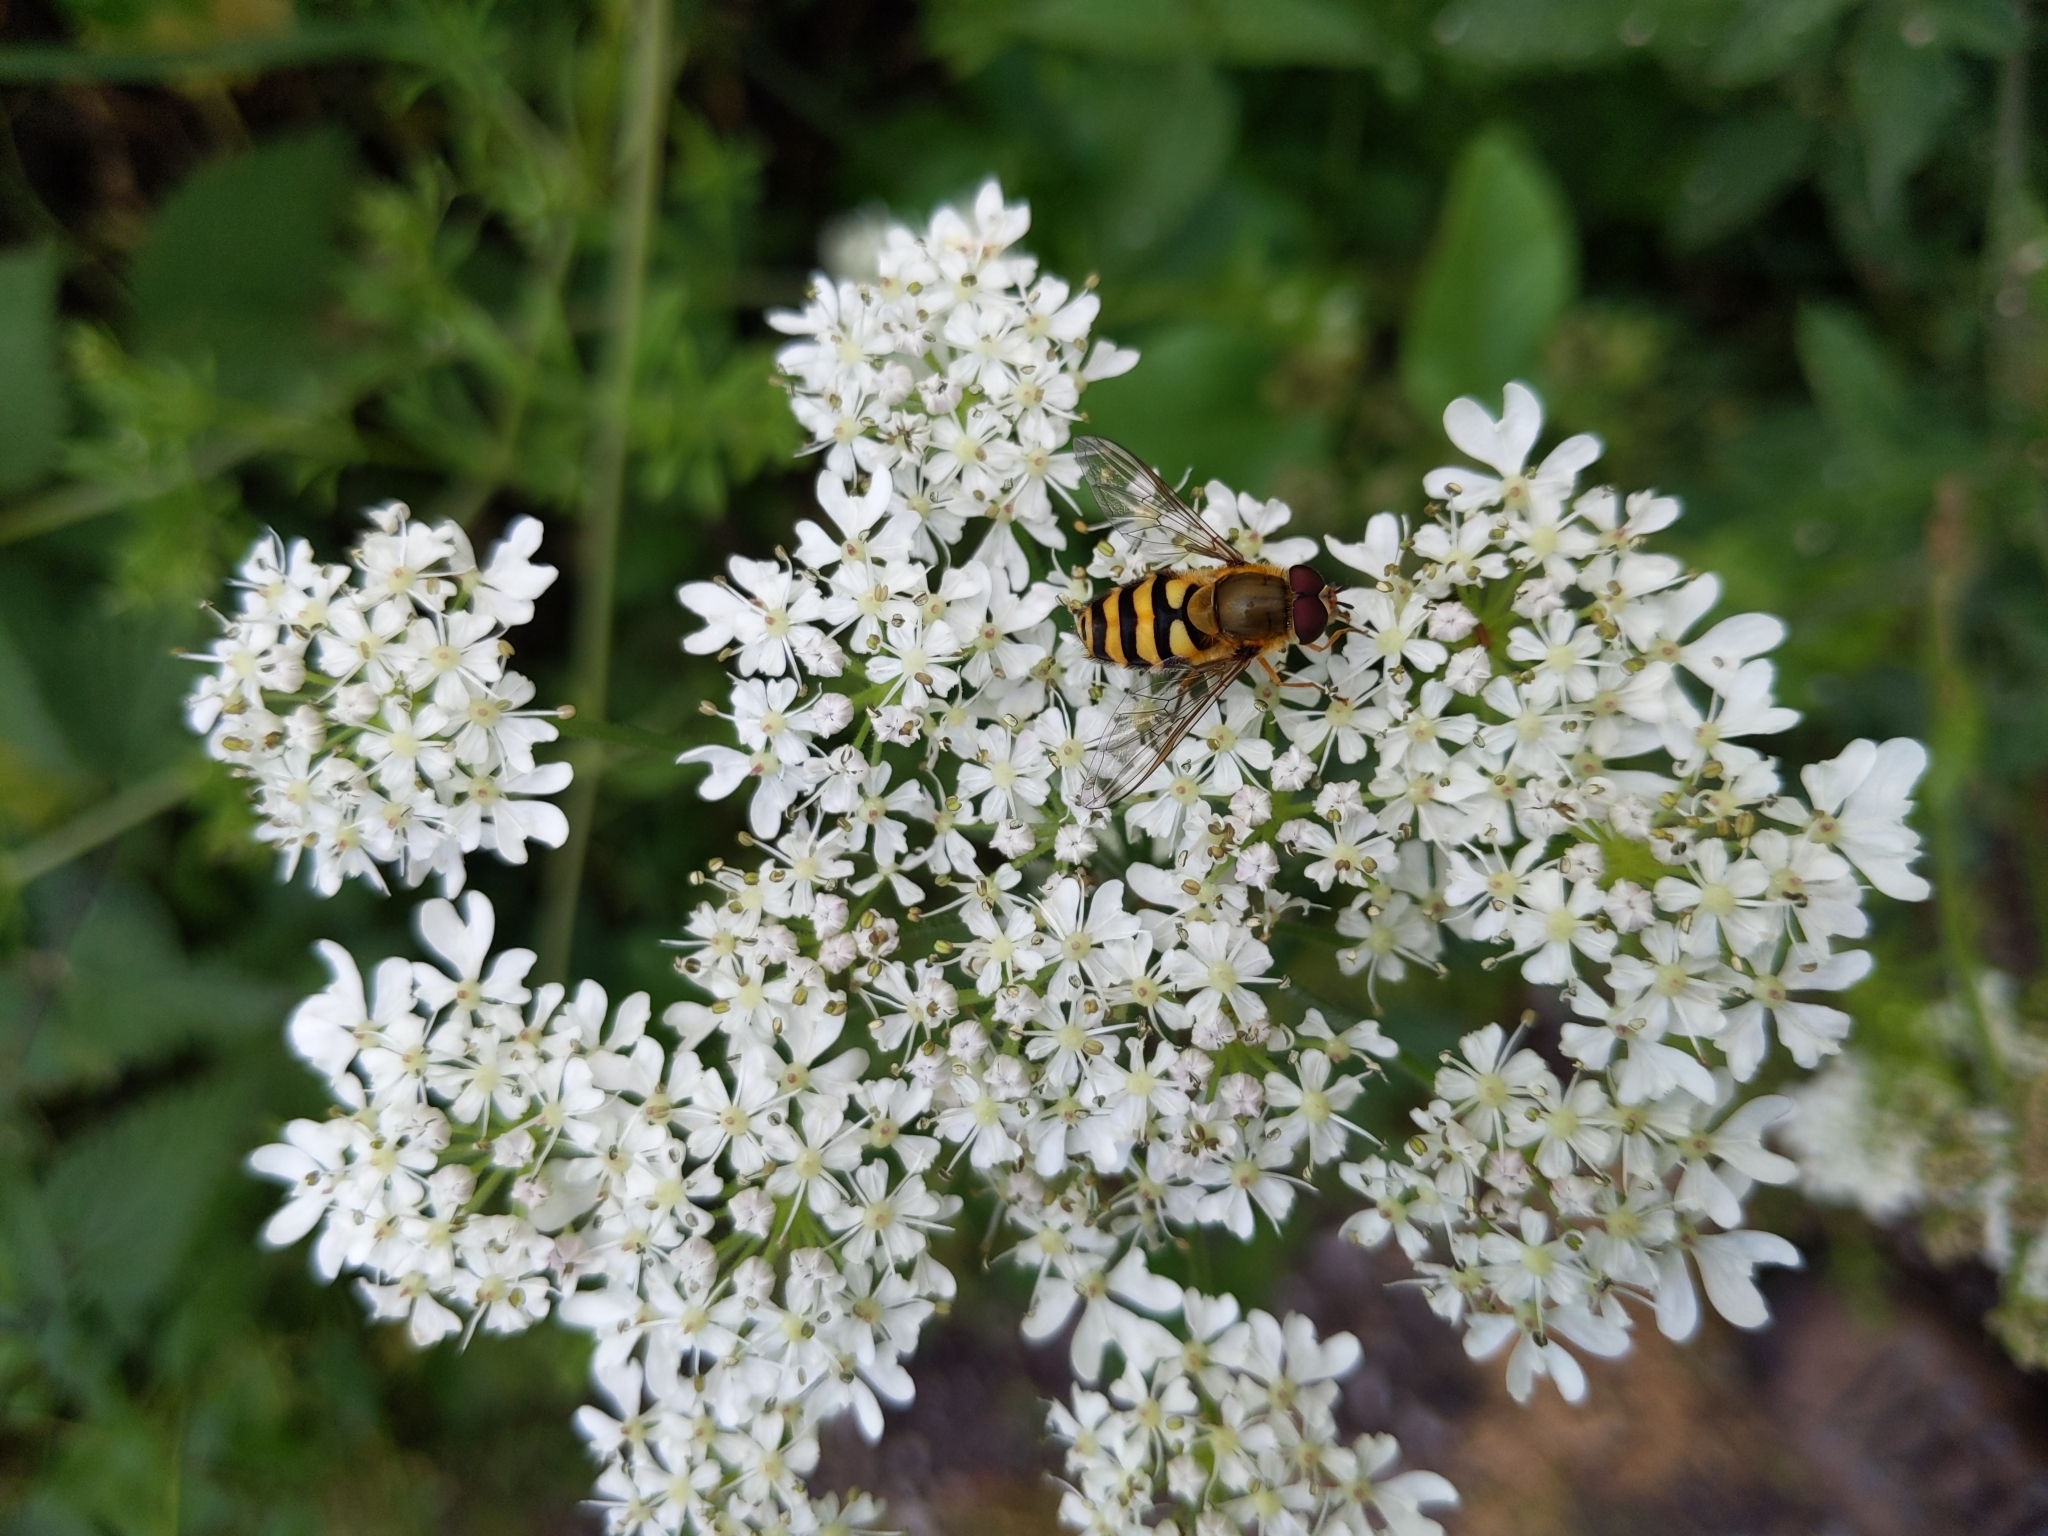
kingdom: Animalia
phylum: Arthropoda
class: Insecta
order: Diptera
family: Syrphidae
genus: Syrphus
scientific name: Syrphus
